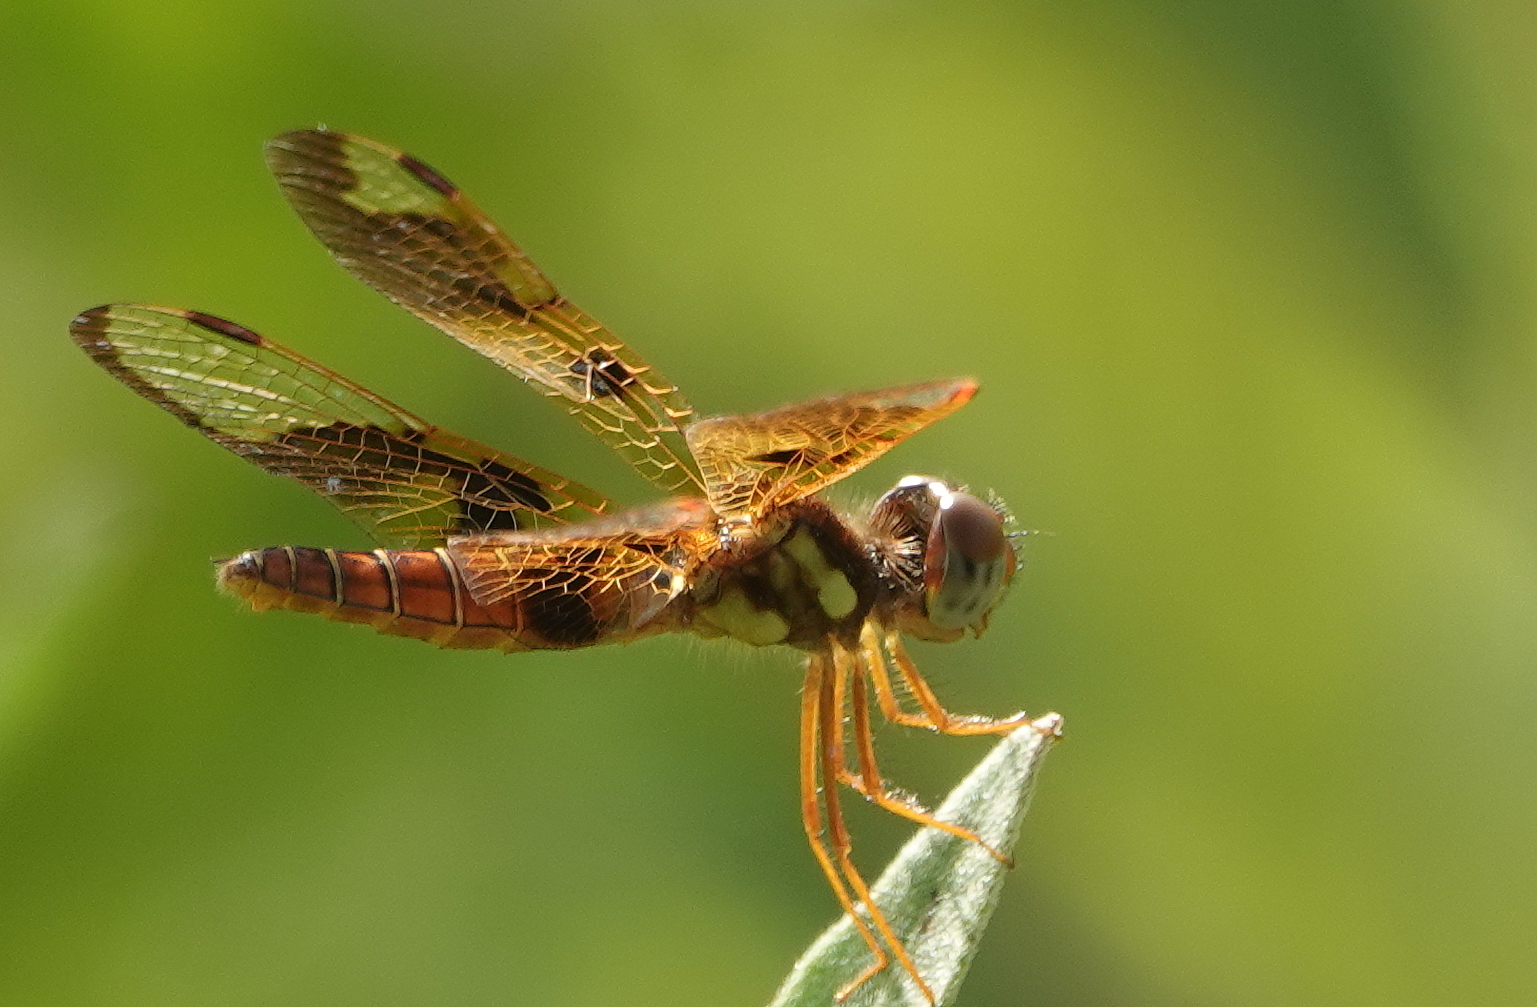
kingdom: Animalia
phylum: Arthropoda
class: Insecta
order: Odonata
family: Libellulidae
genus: Perithemis
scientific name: Perithemis tenera
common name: Eastern amberwing
